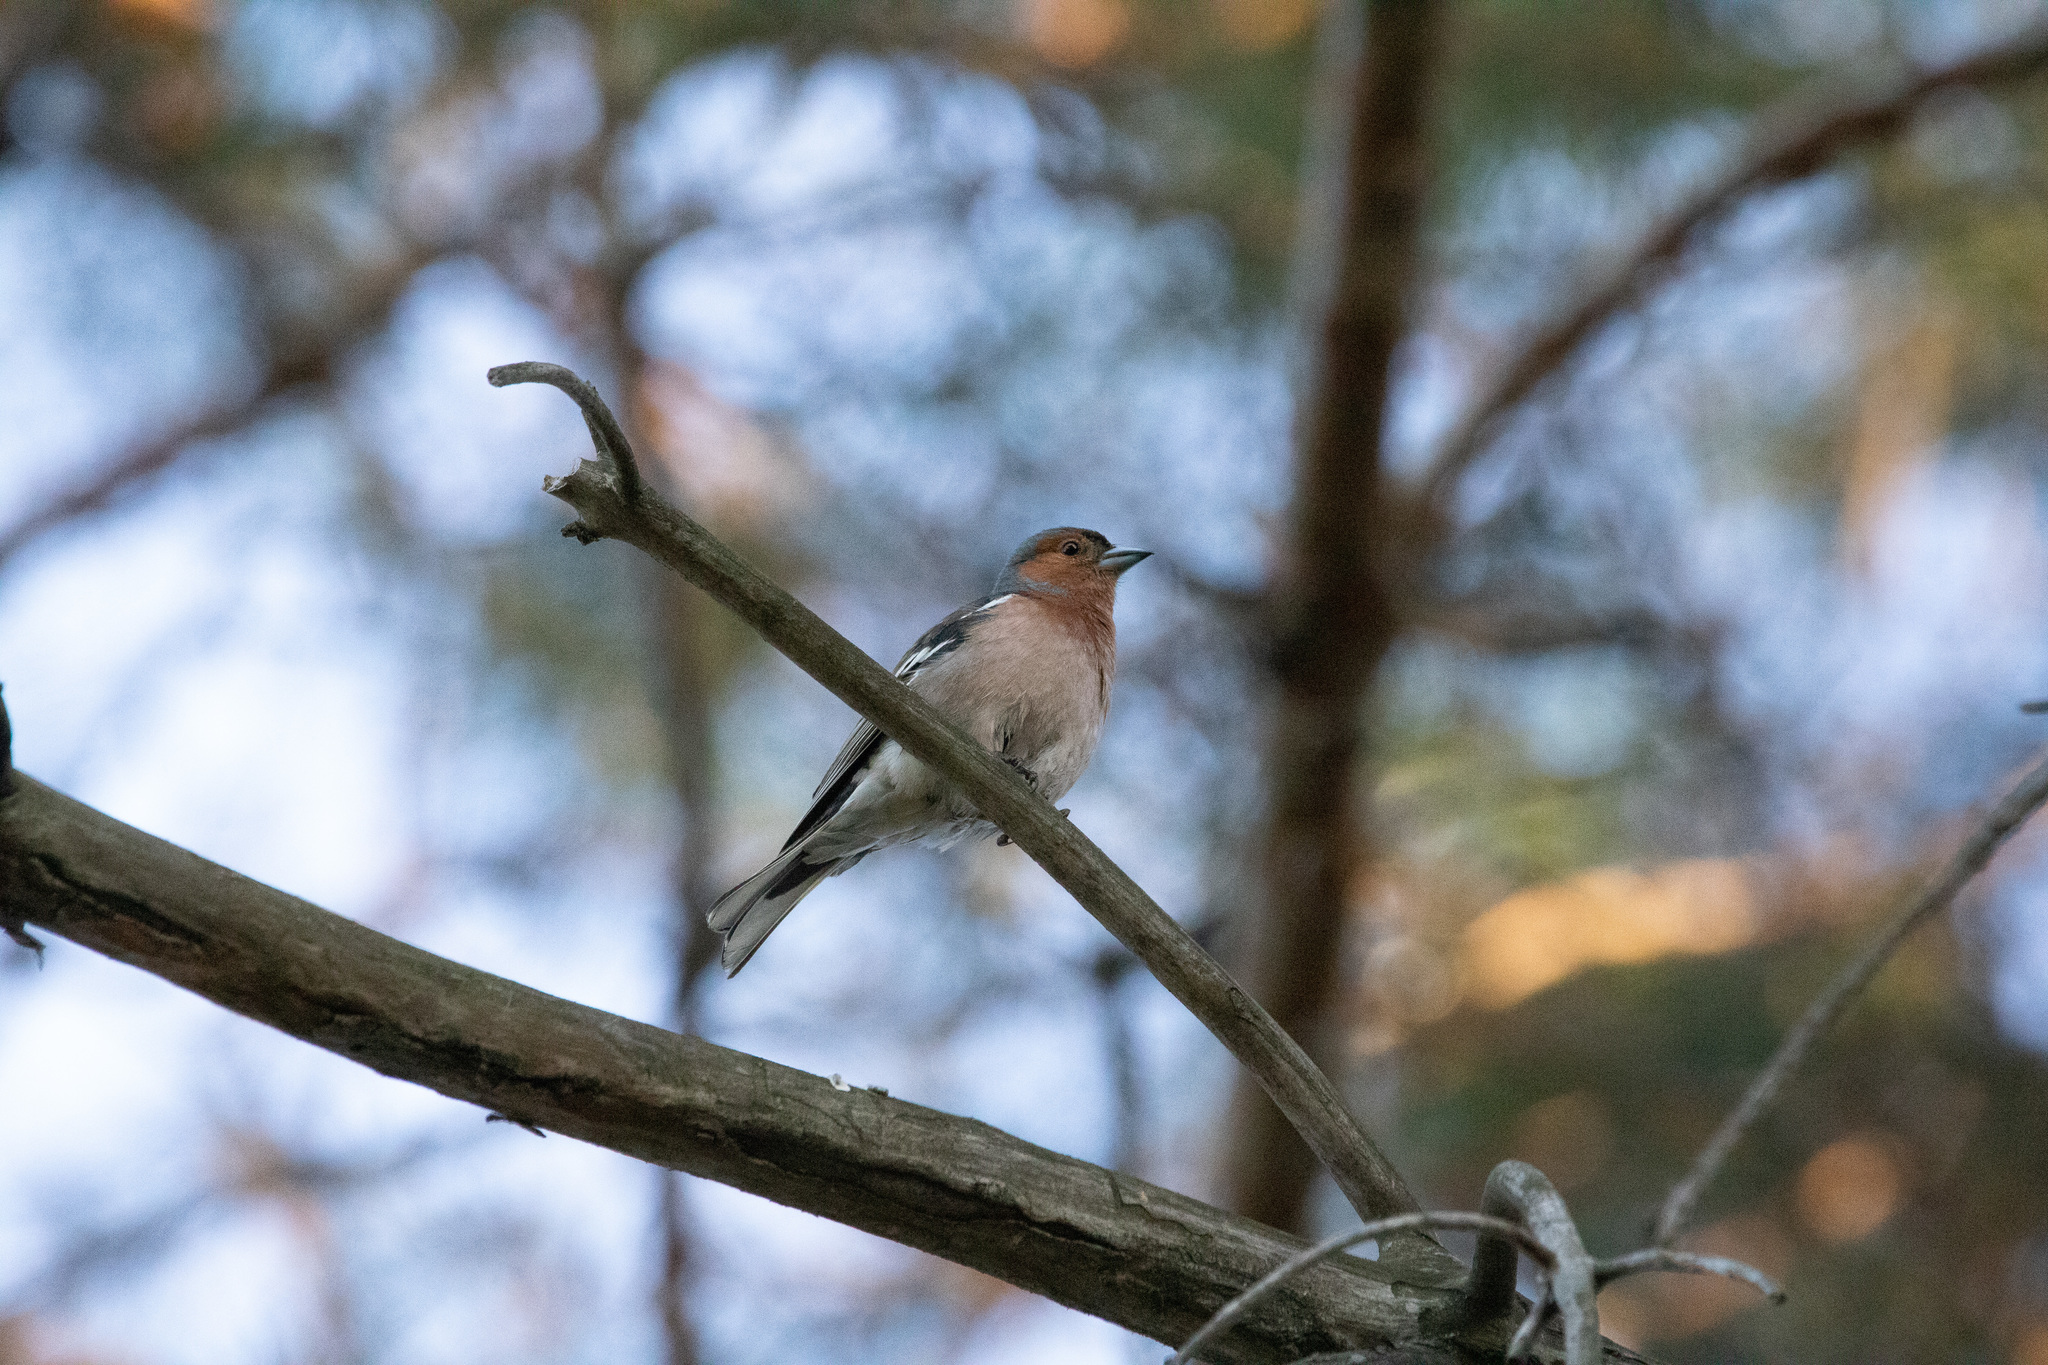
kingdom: Animalia
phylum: Chordata
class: Aves
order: Passeriformes
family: Fringillidae
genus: Fringilla
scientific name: Fringilla coelebs
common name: Common chaffinch
